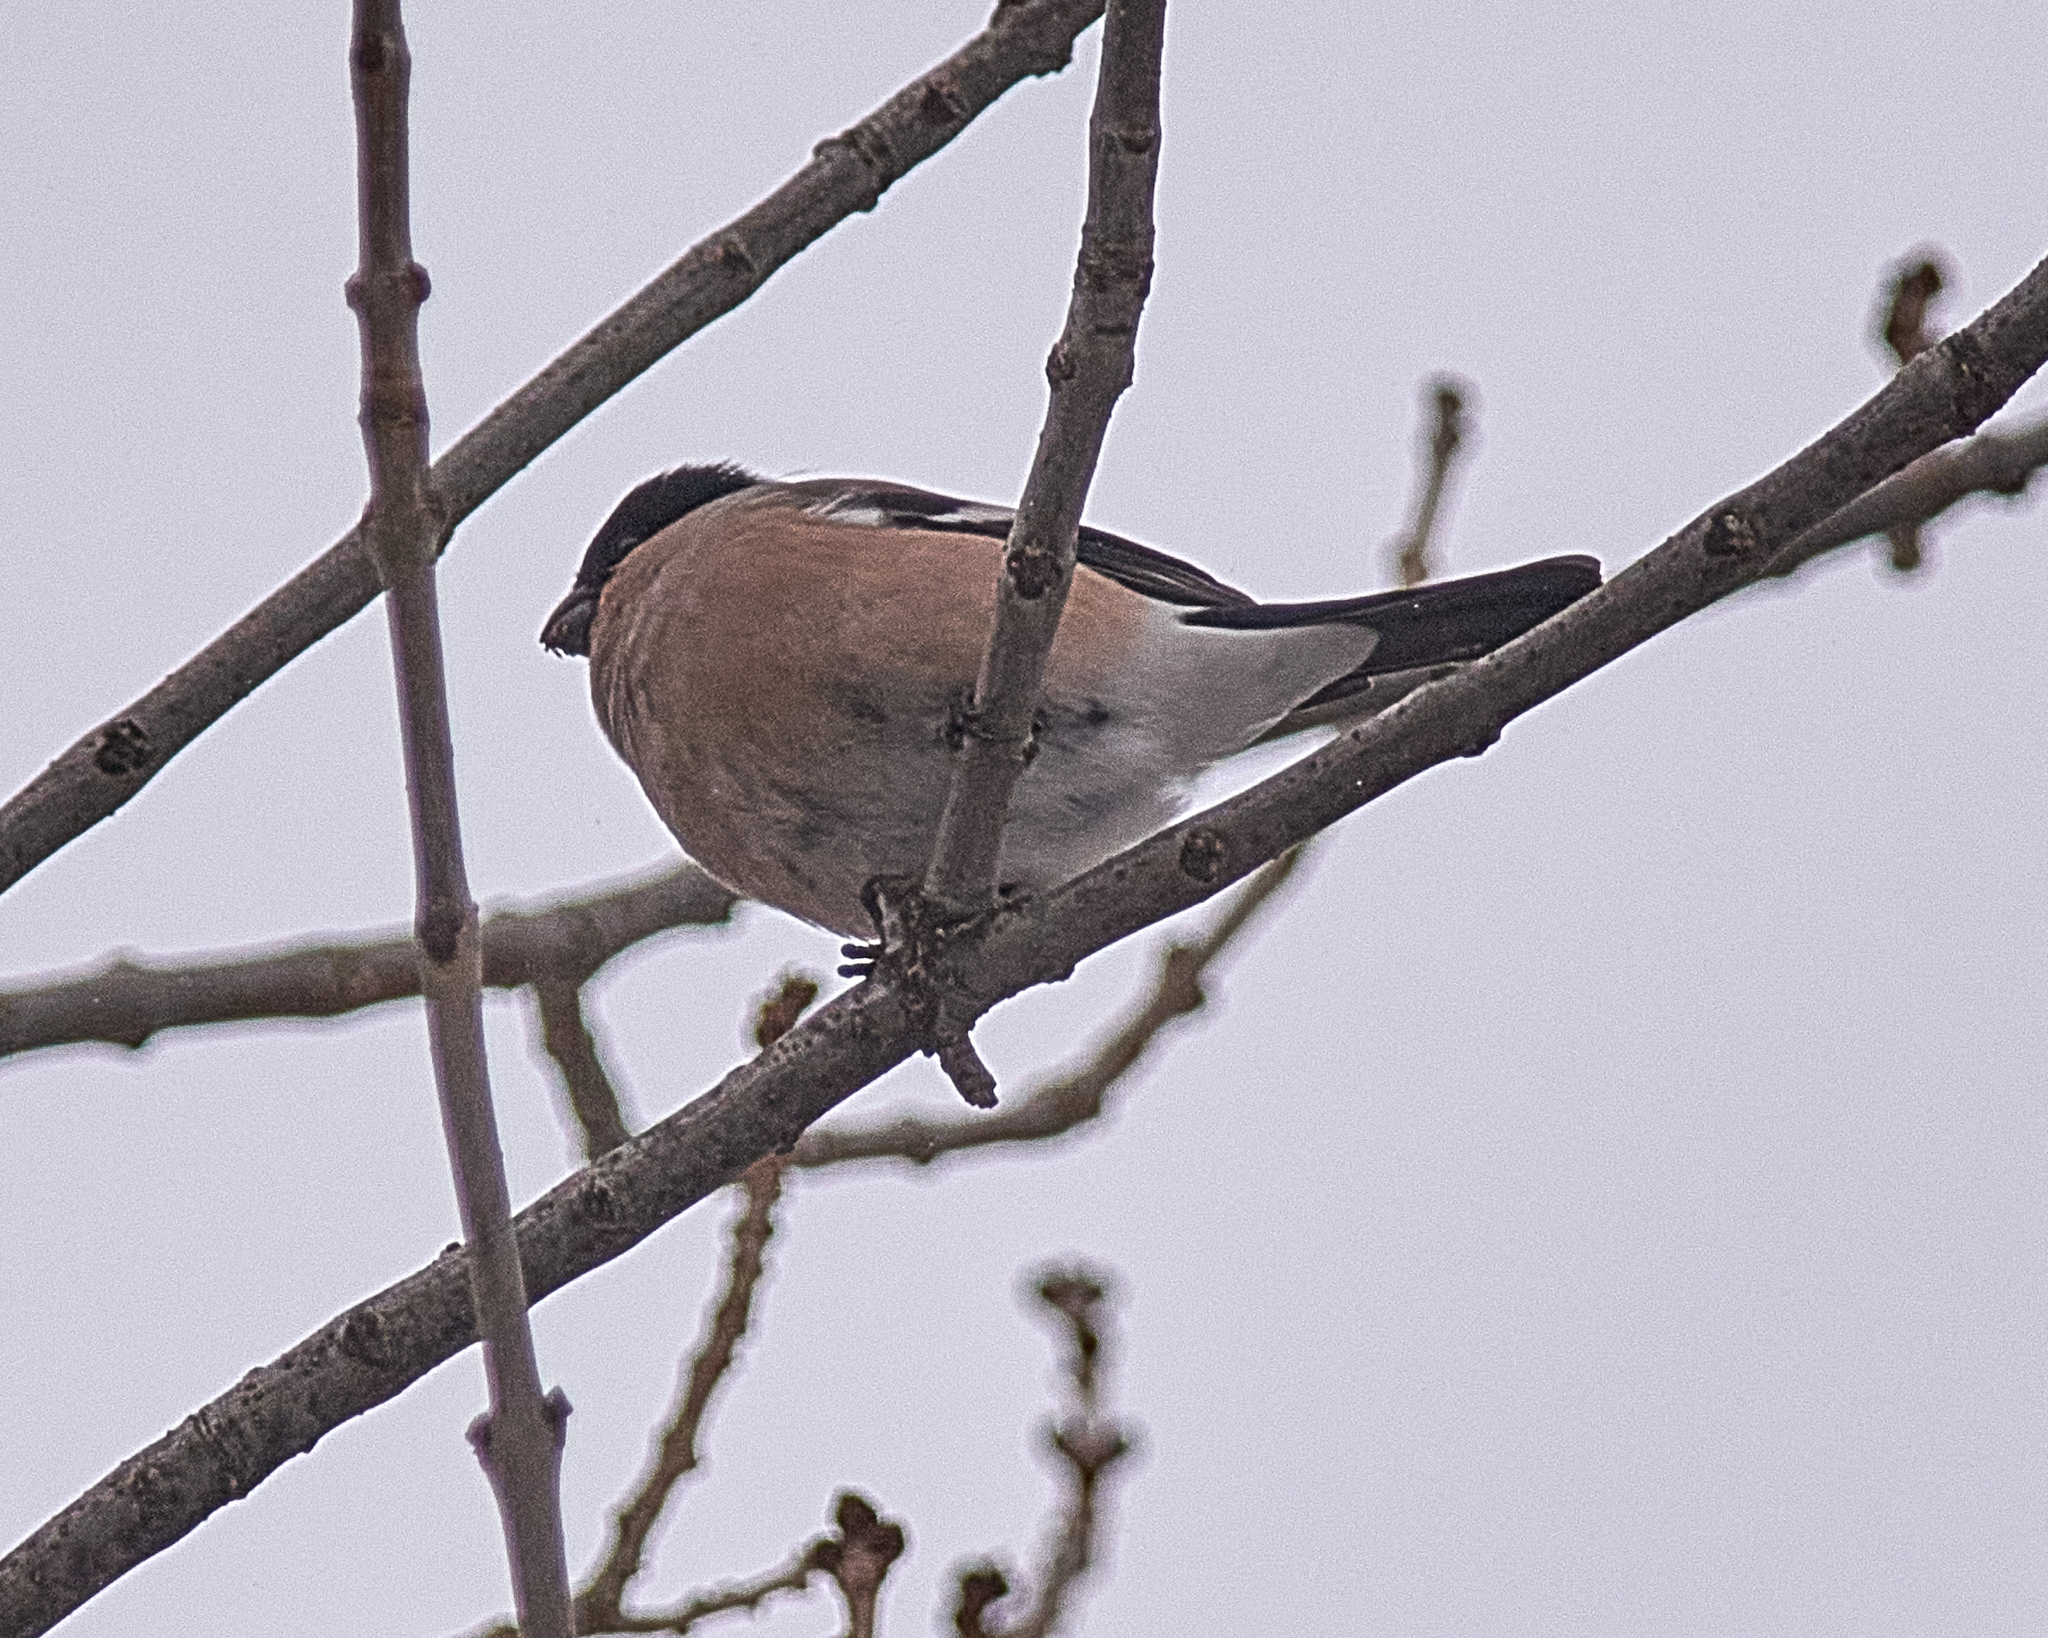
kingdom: Animalia
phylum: Chordata
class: Aves
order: Passeriformes
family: Fringillidae
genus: Pyrrhula
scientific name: Pyrrhula pyrrhula
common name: Eurasian bullfinch
